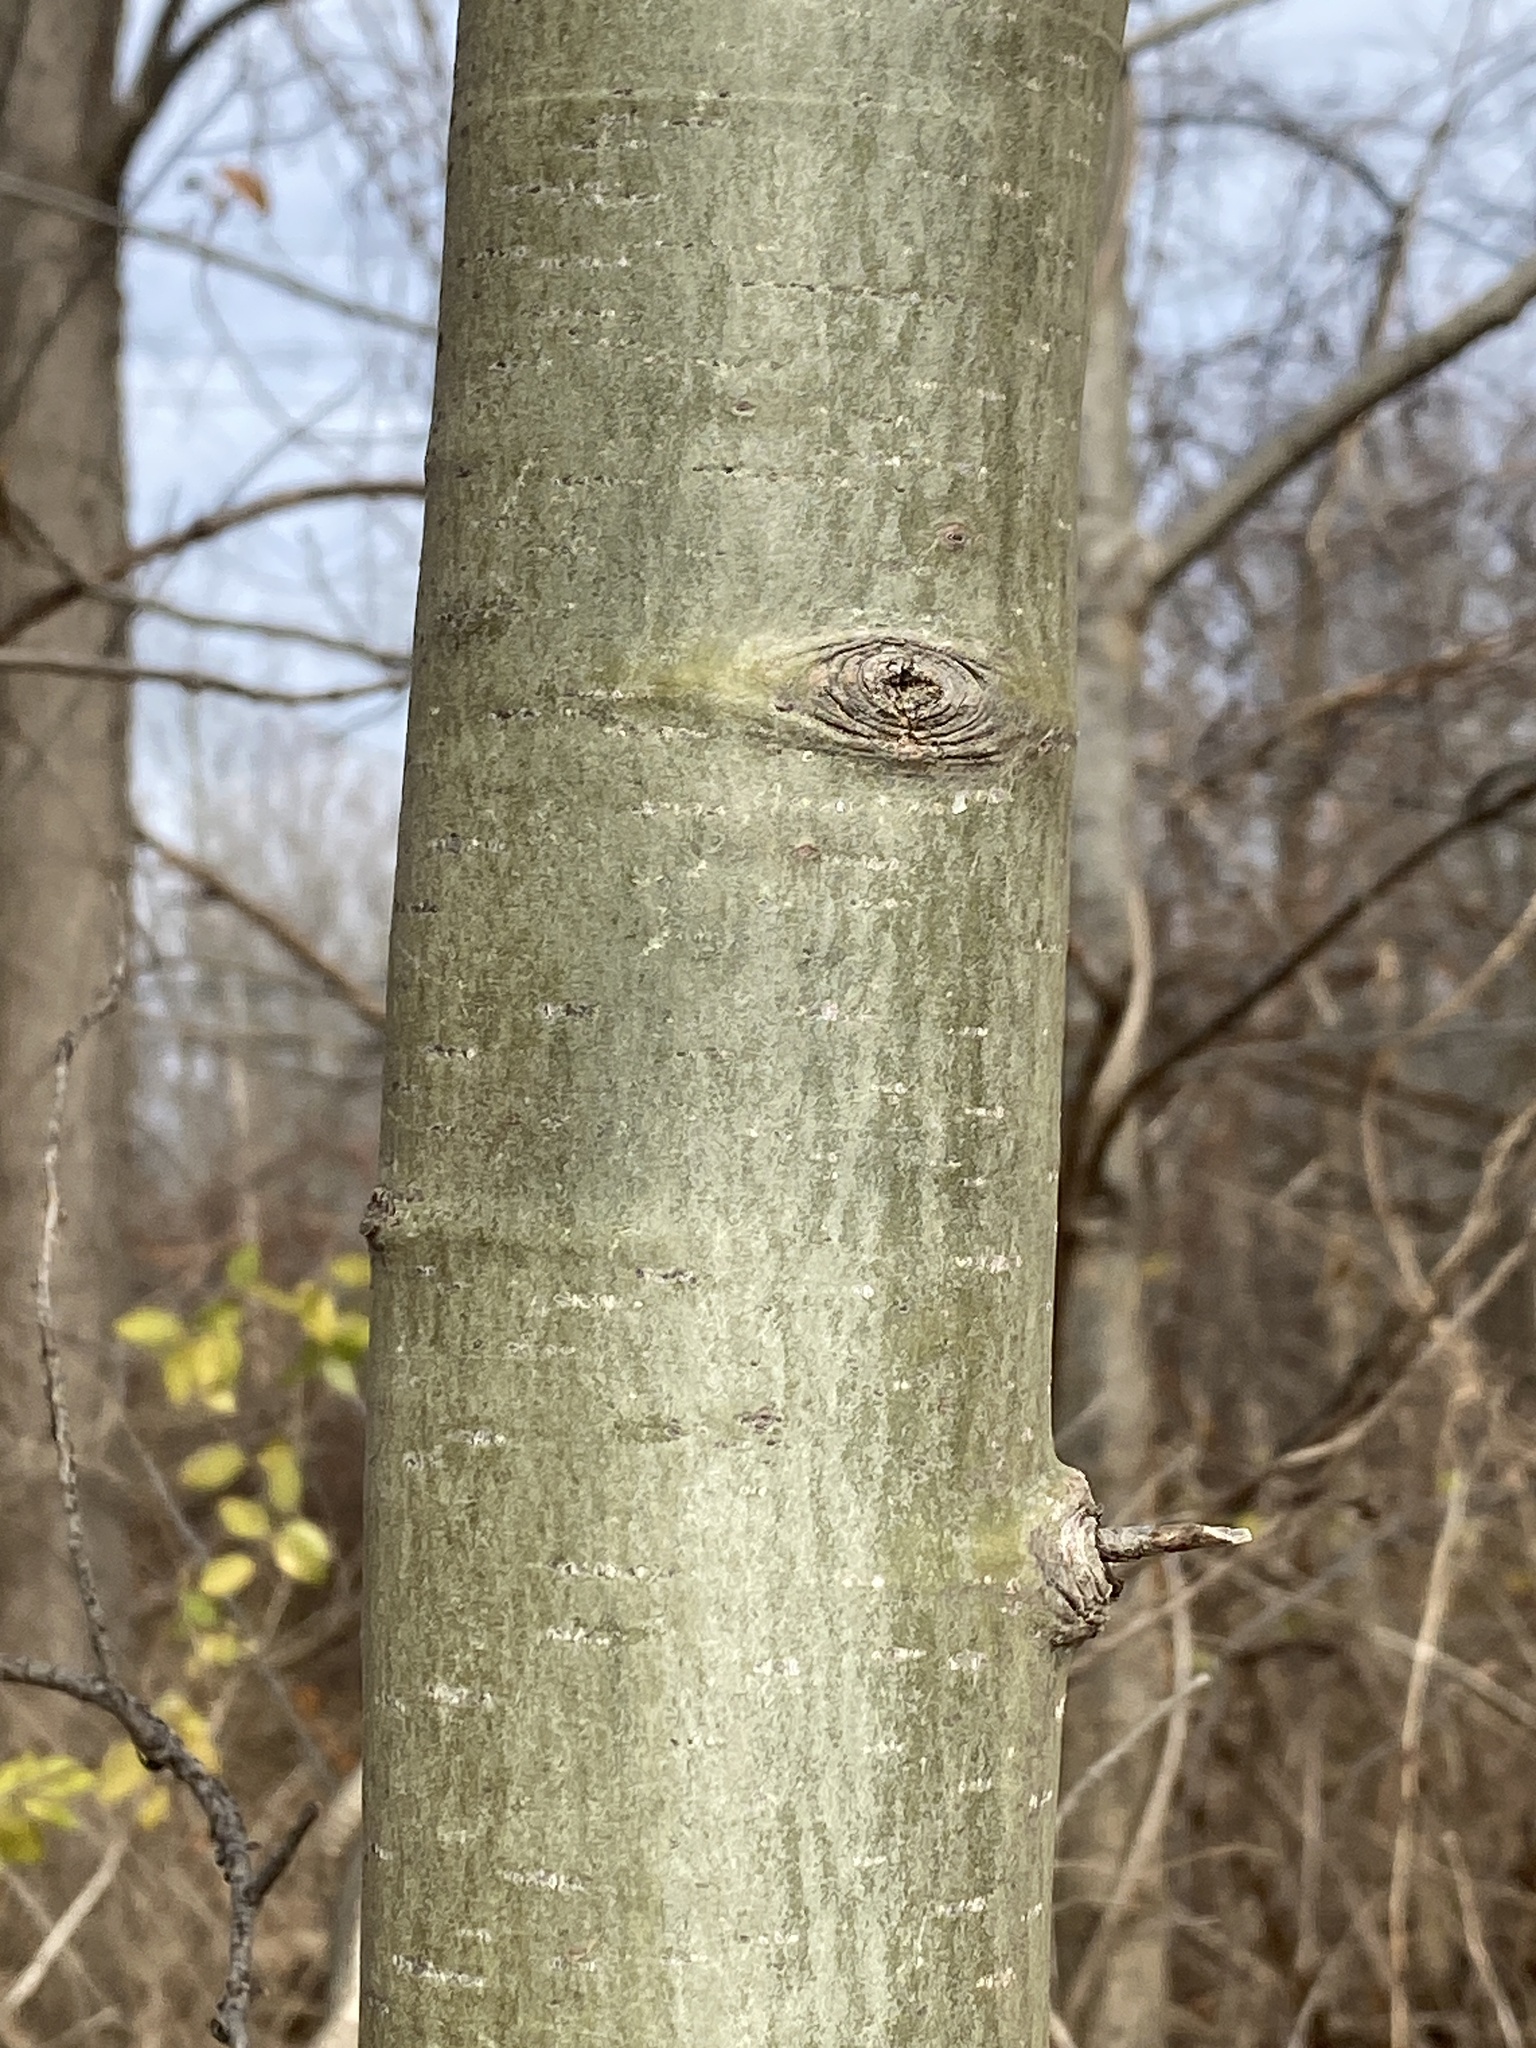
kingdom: Plantae
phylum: Tracheophyta
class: Magnoliopsida
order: Malpighiales
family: Salicaceae
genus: Populus
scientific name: Populus deltoides
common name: Eastern cottonwood
